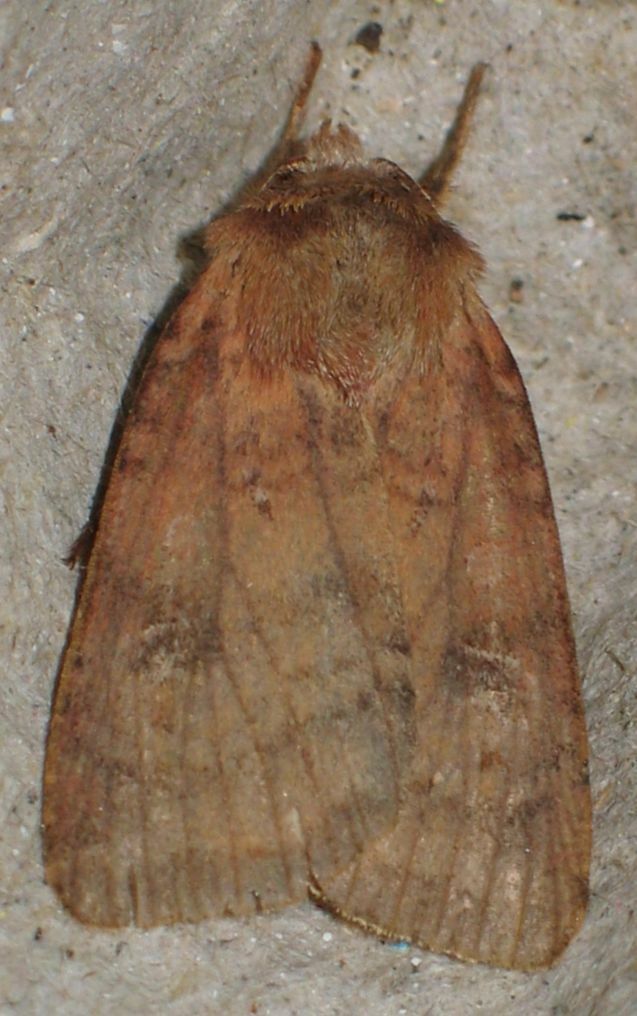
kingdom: Animalia
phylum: Arthropoda
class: Insecta
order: Lepidoptera
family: Noctuidae
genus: Diarsia
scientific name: Diarsia rubi
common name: Small square-spot
